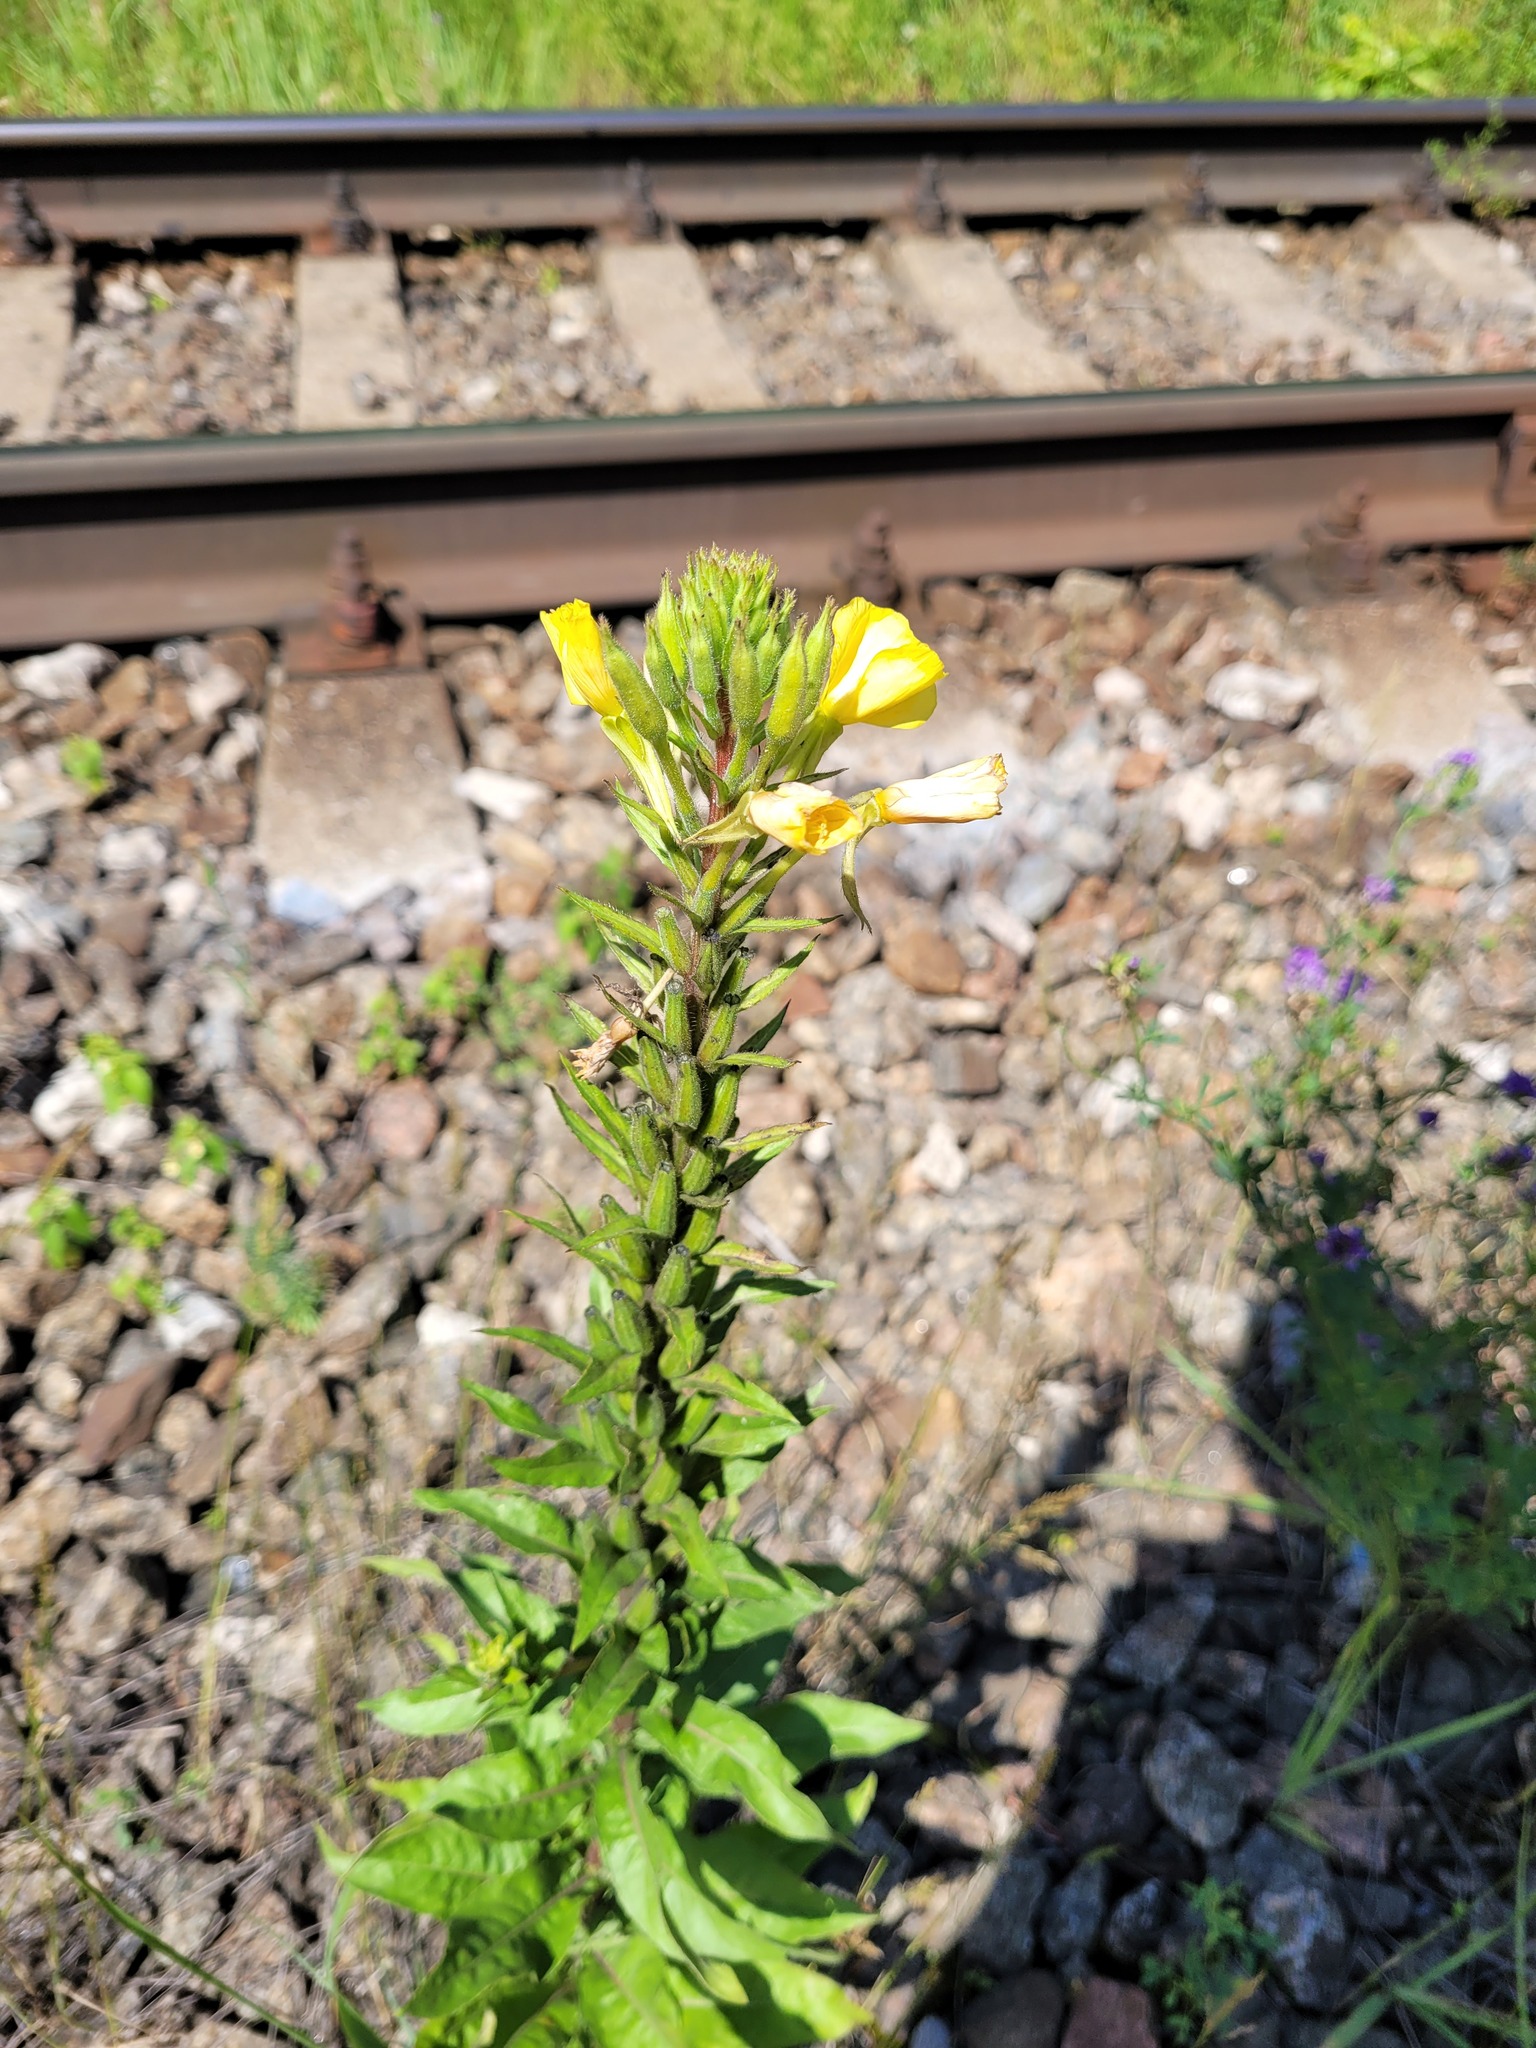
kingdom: Plantae
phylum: Tracheophyta
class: Magnoliopsida
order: Myrtales
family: Onagraceae
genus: Oenothera
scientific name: Oenothera rubricaulis
